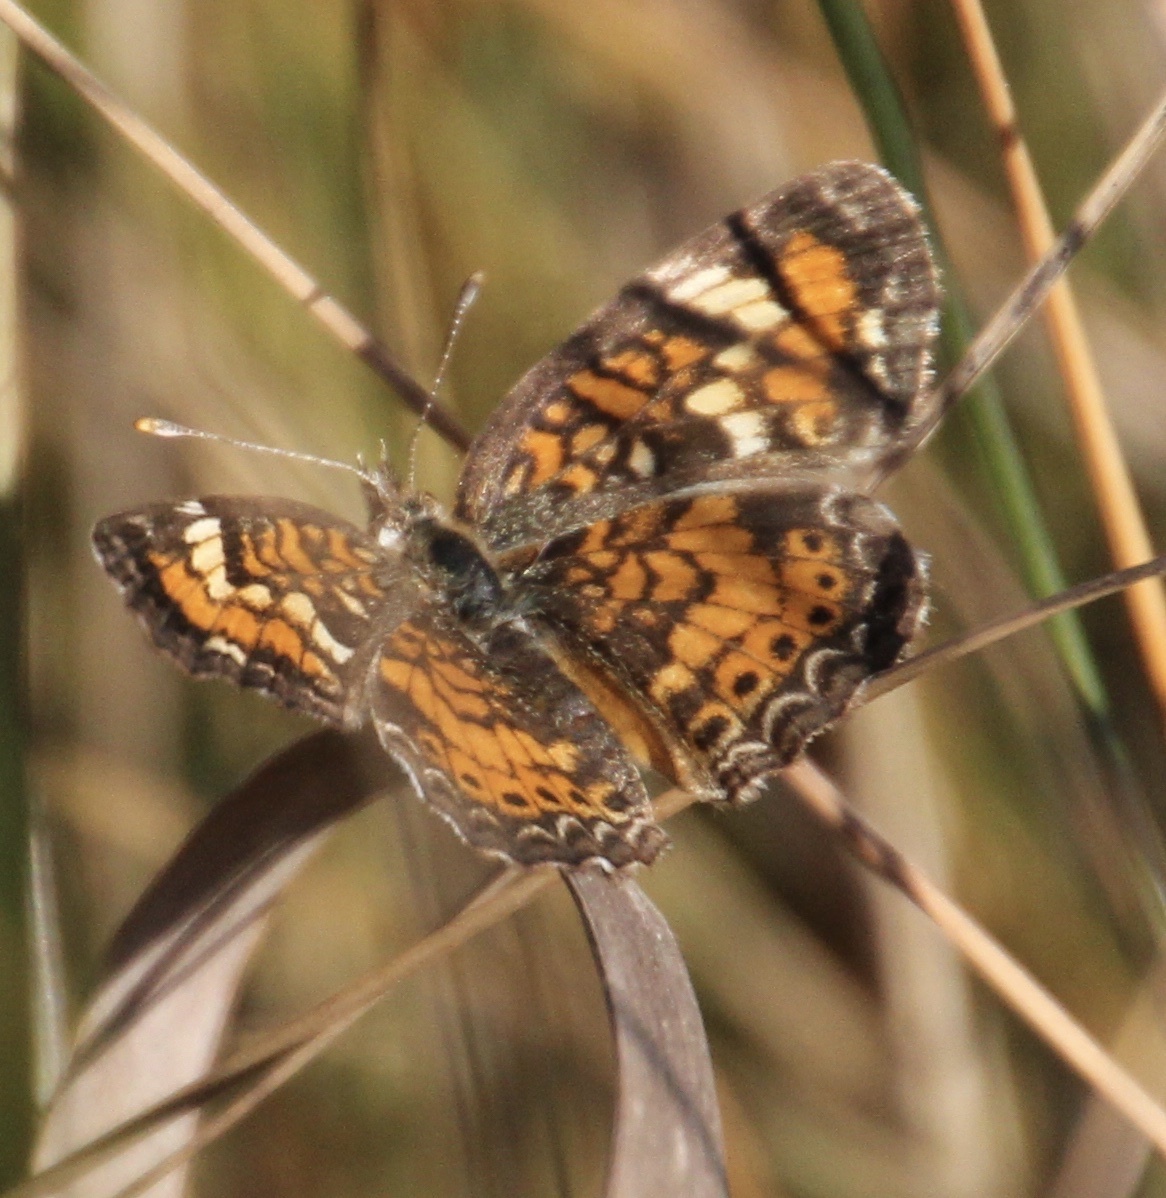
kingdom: Animalia
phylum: Arthropoda
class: Insecta
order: Lepidoptera
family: Nymphalidae
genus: Phyciodes
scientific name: Phyciodes phaon
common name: Phaon crescent
